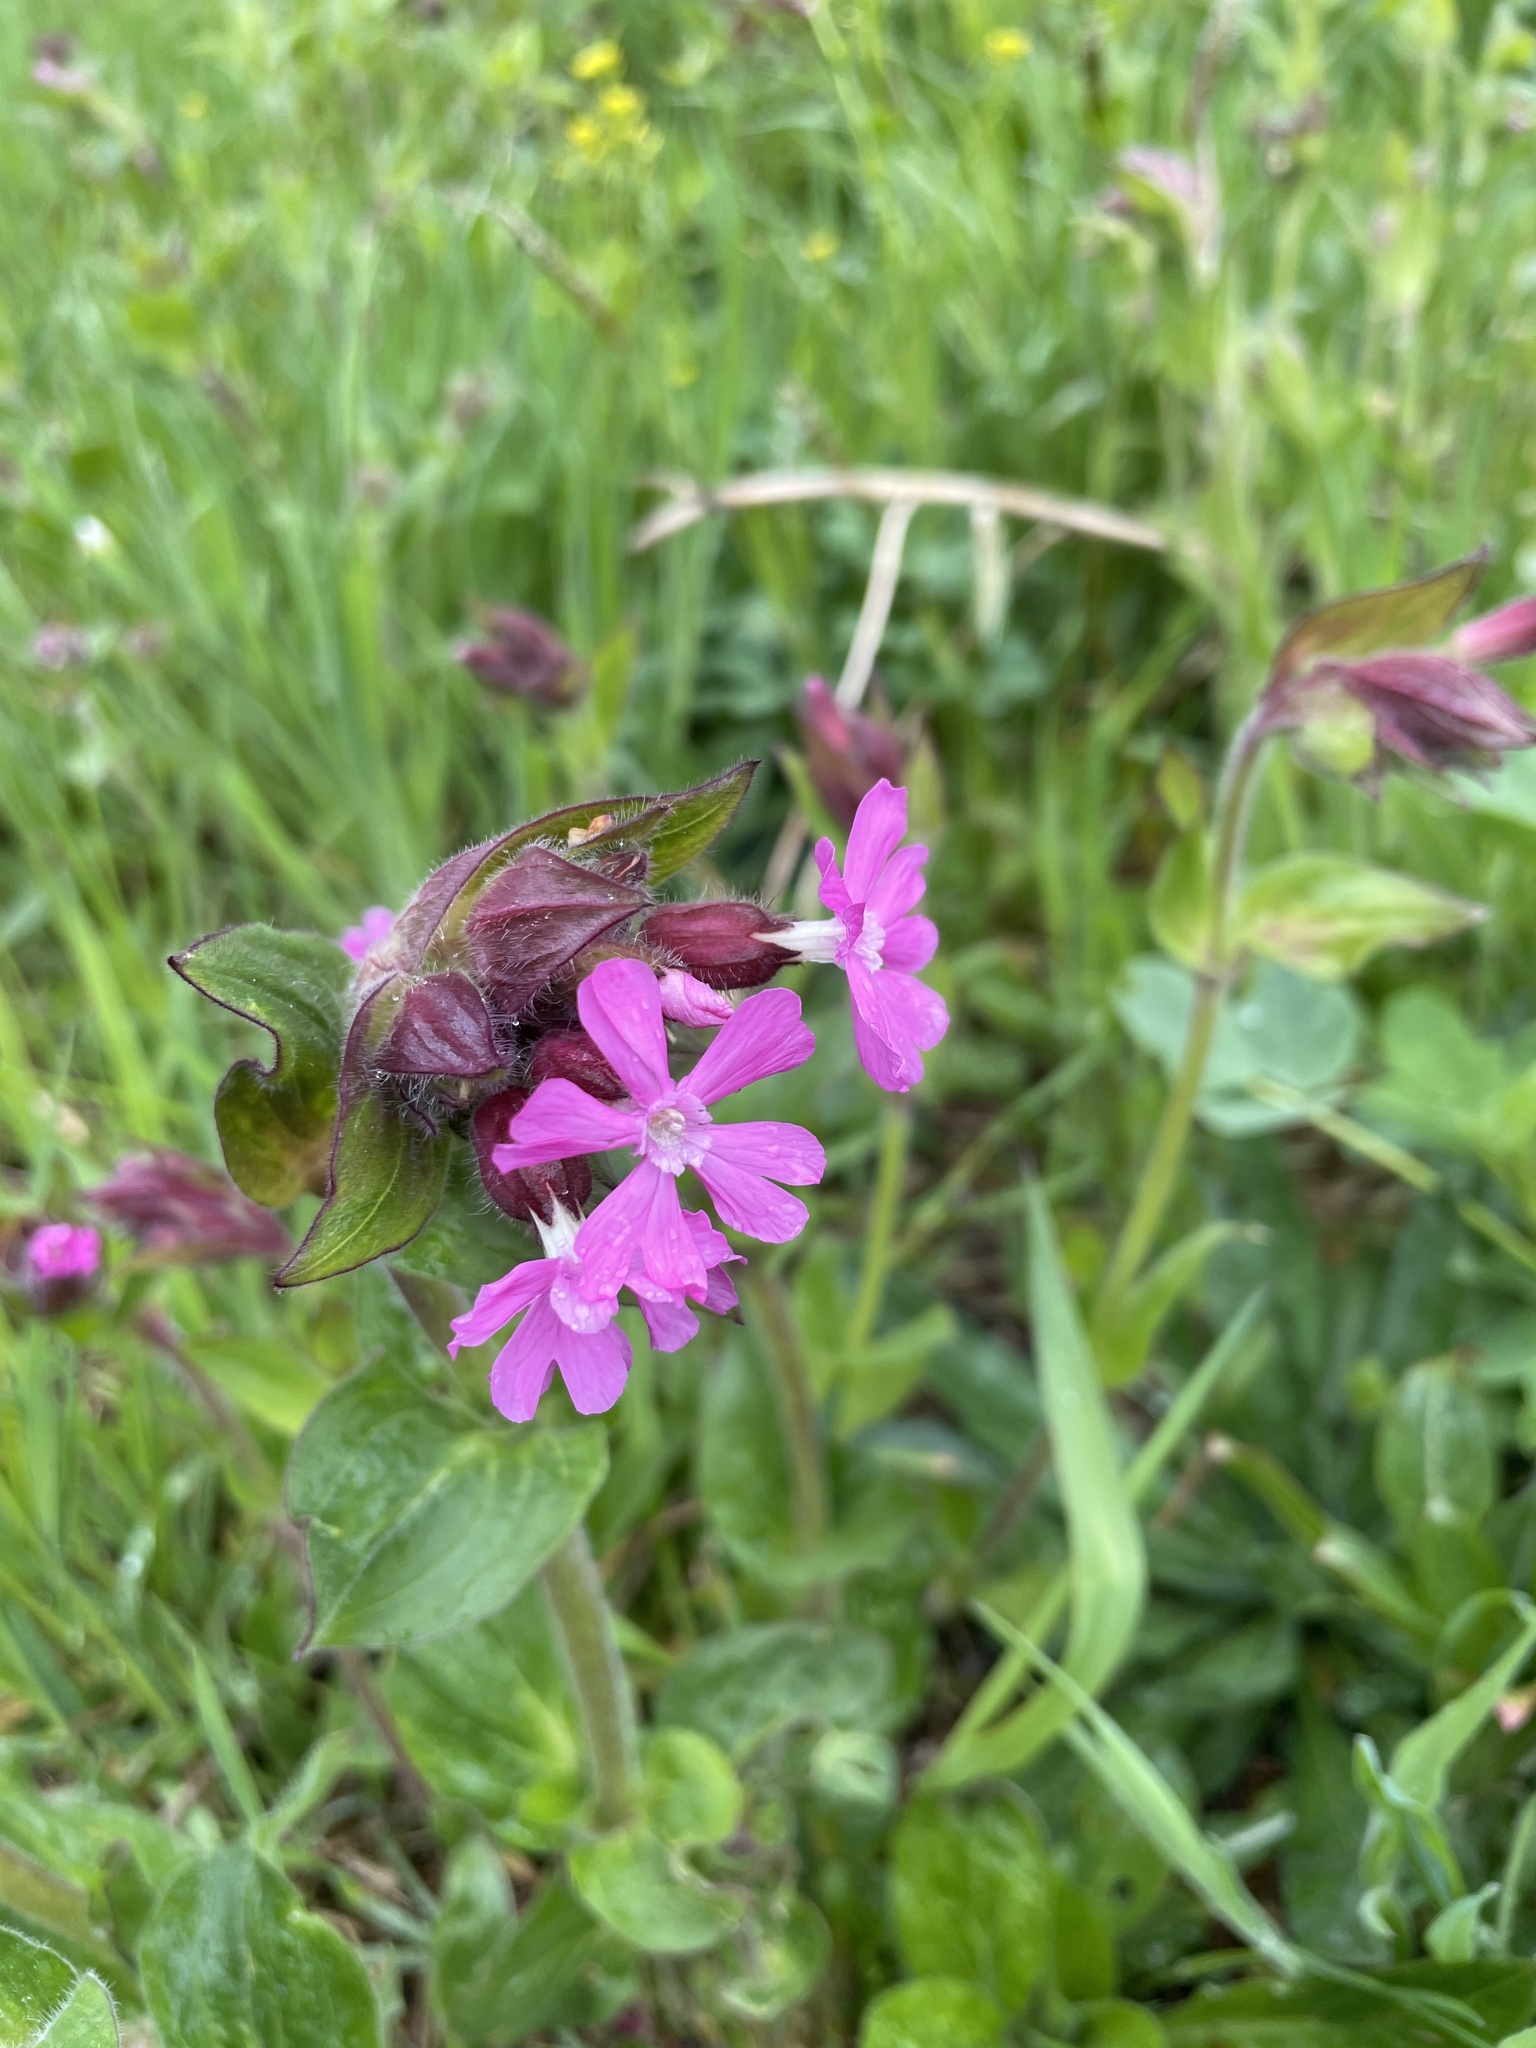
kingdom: Plantae
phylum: Tracheophyta
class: Magnoliopsida
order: Caryophyllales
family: Caryophyllaceae
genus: Silene
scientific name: Silene dioica
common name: Red campion
